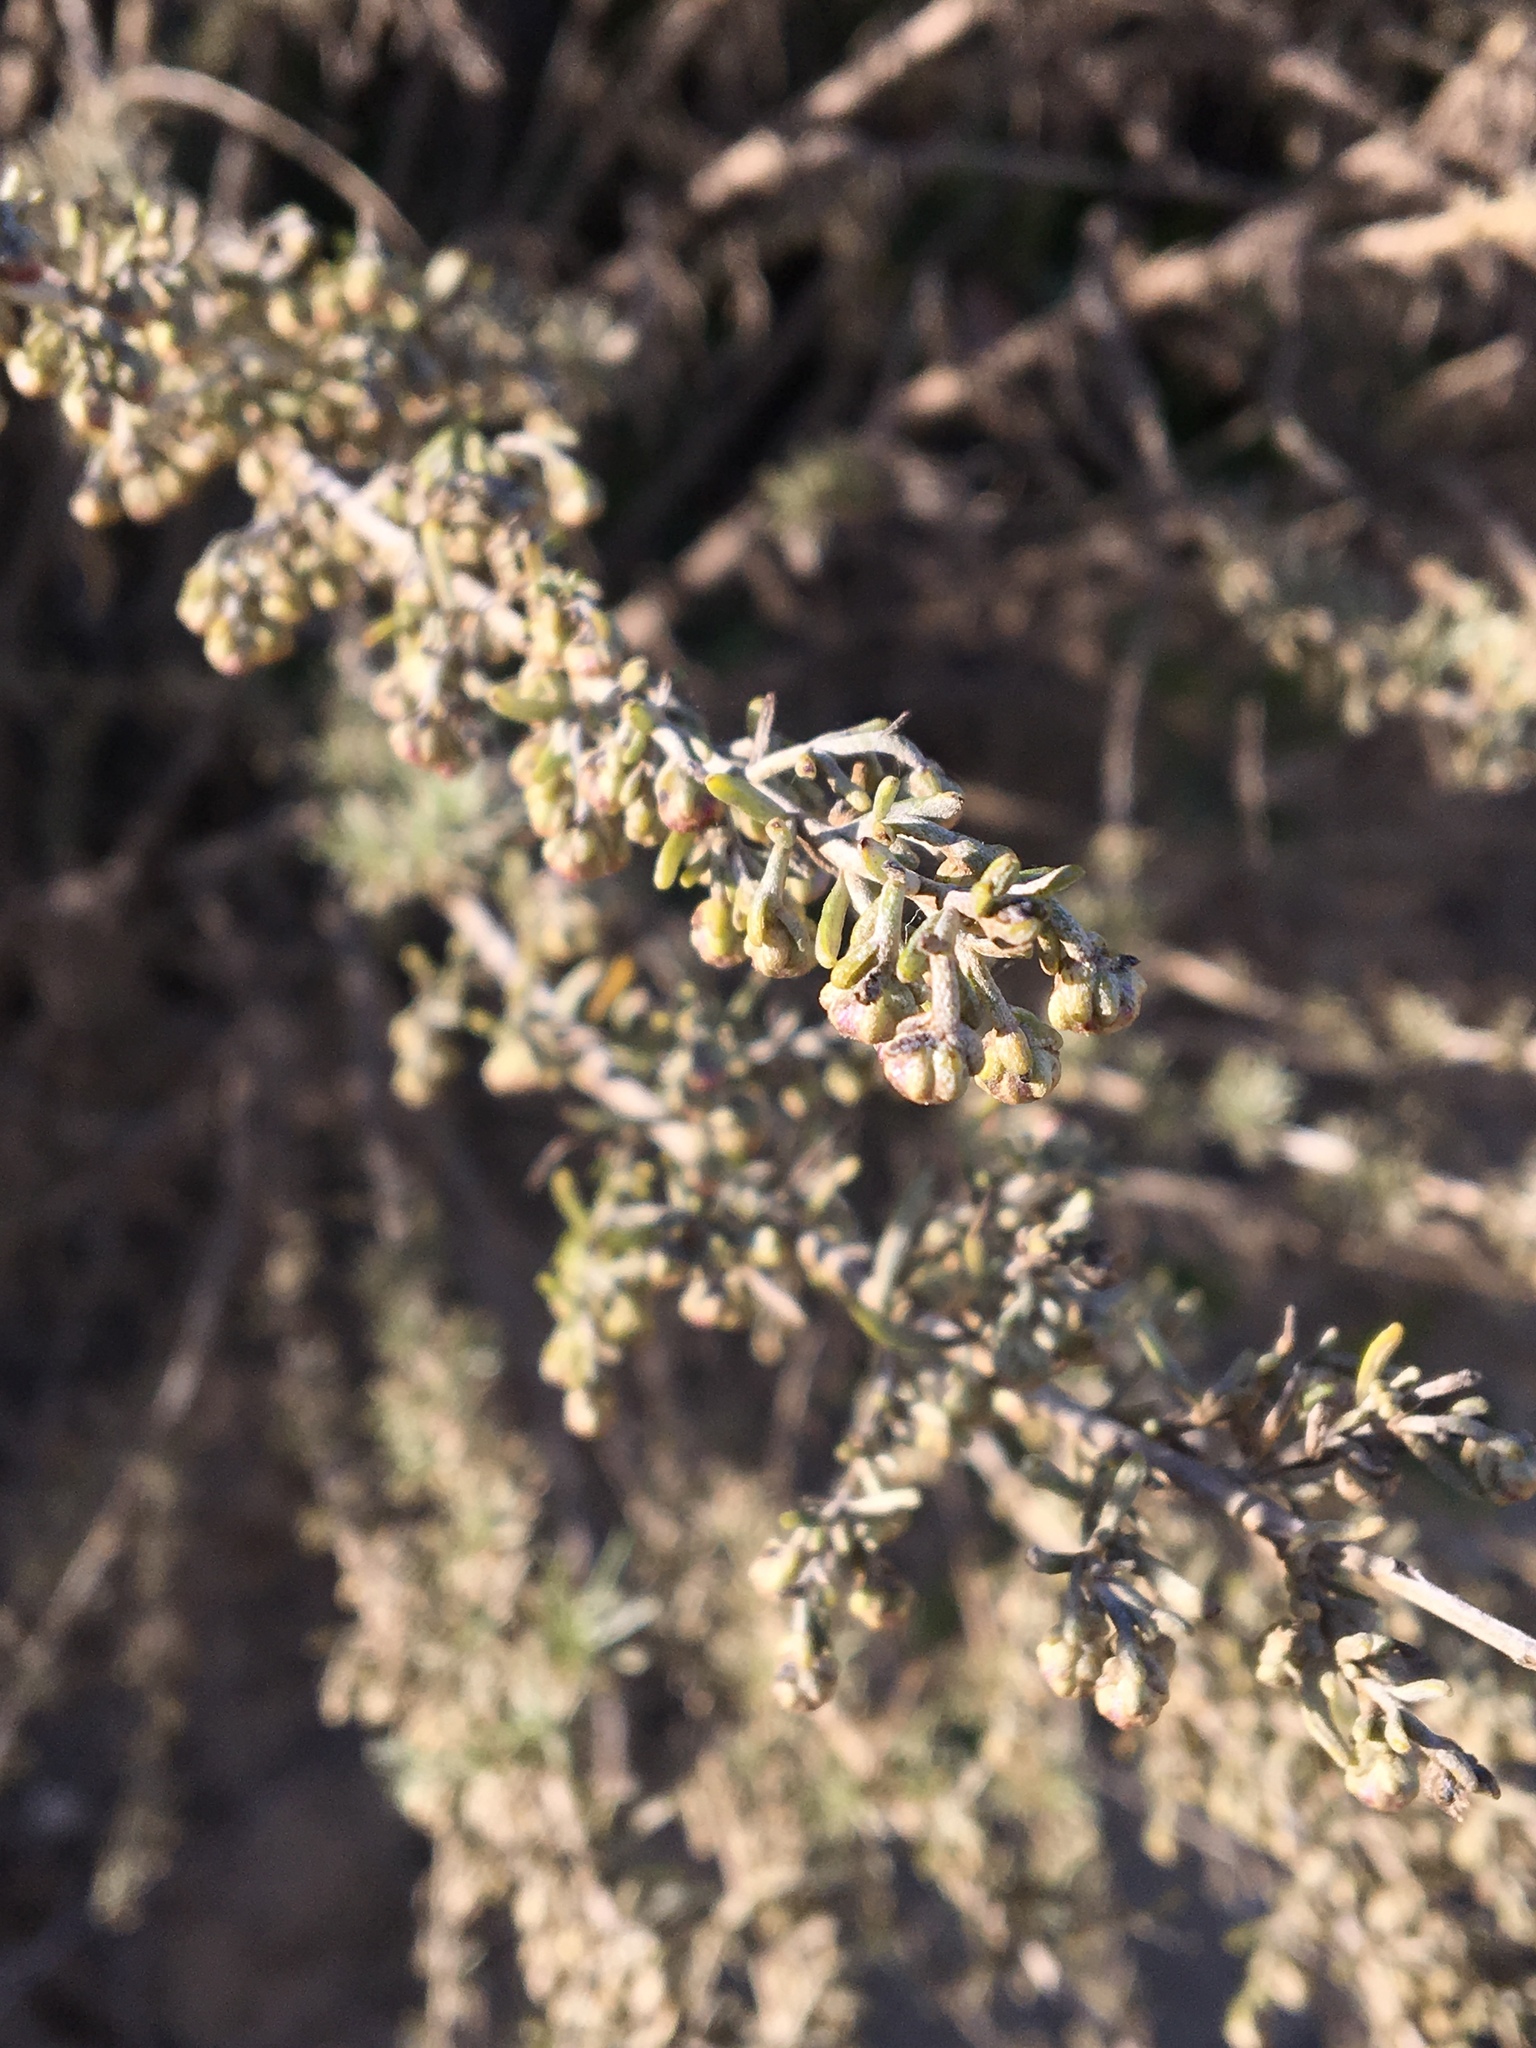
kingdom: Plantae
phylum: Tracheophyta
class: Magnoliopsida
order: Asterales
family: Asteraceae
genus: Artemisia
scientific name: Artemisia californica
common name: California sagebrush
